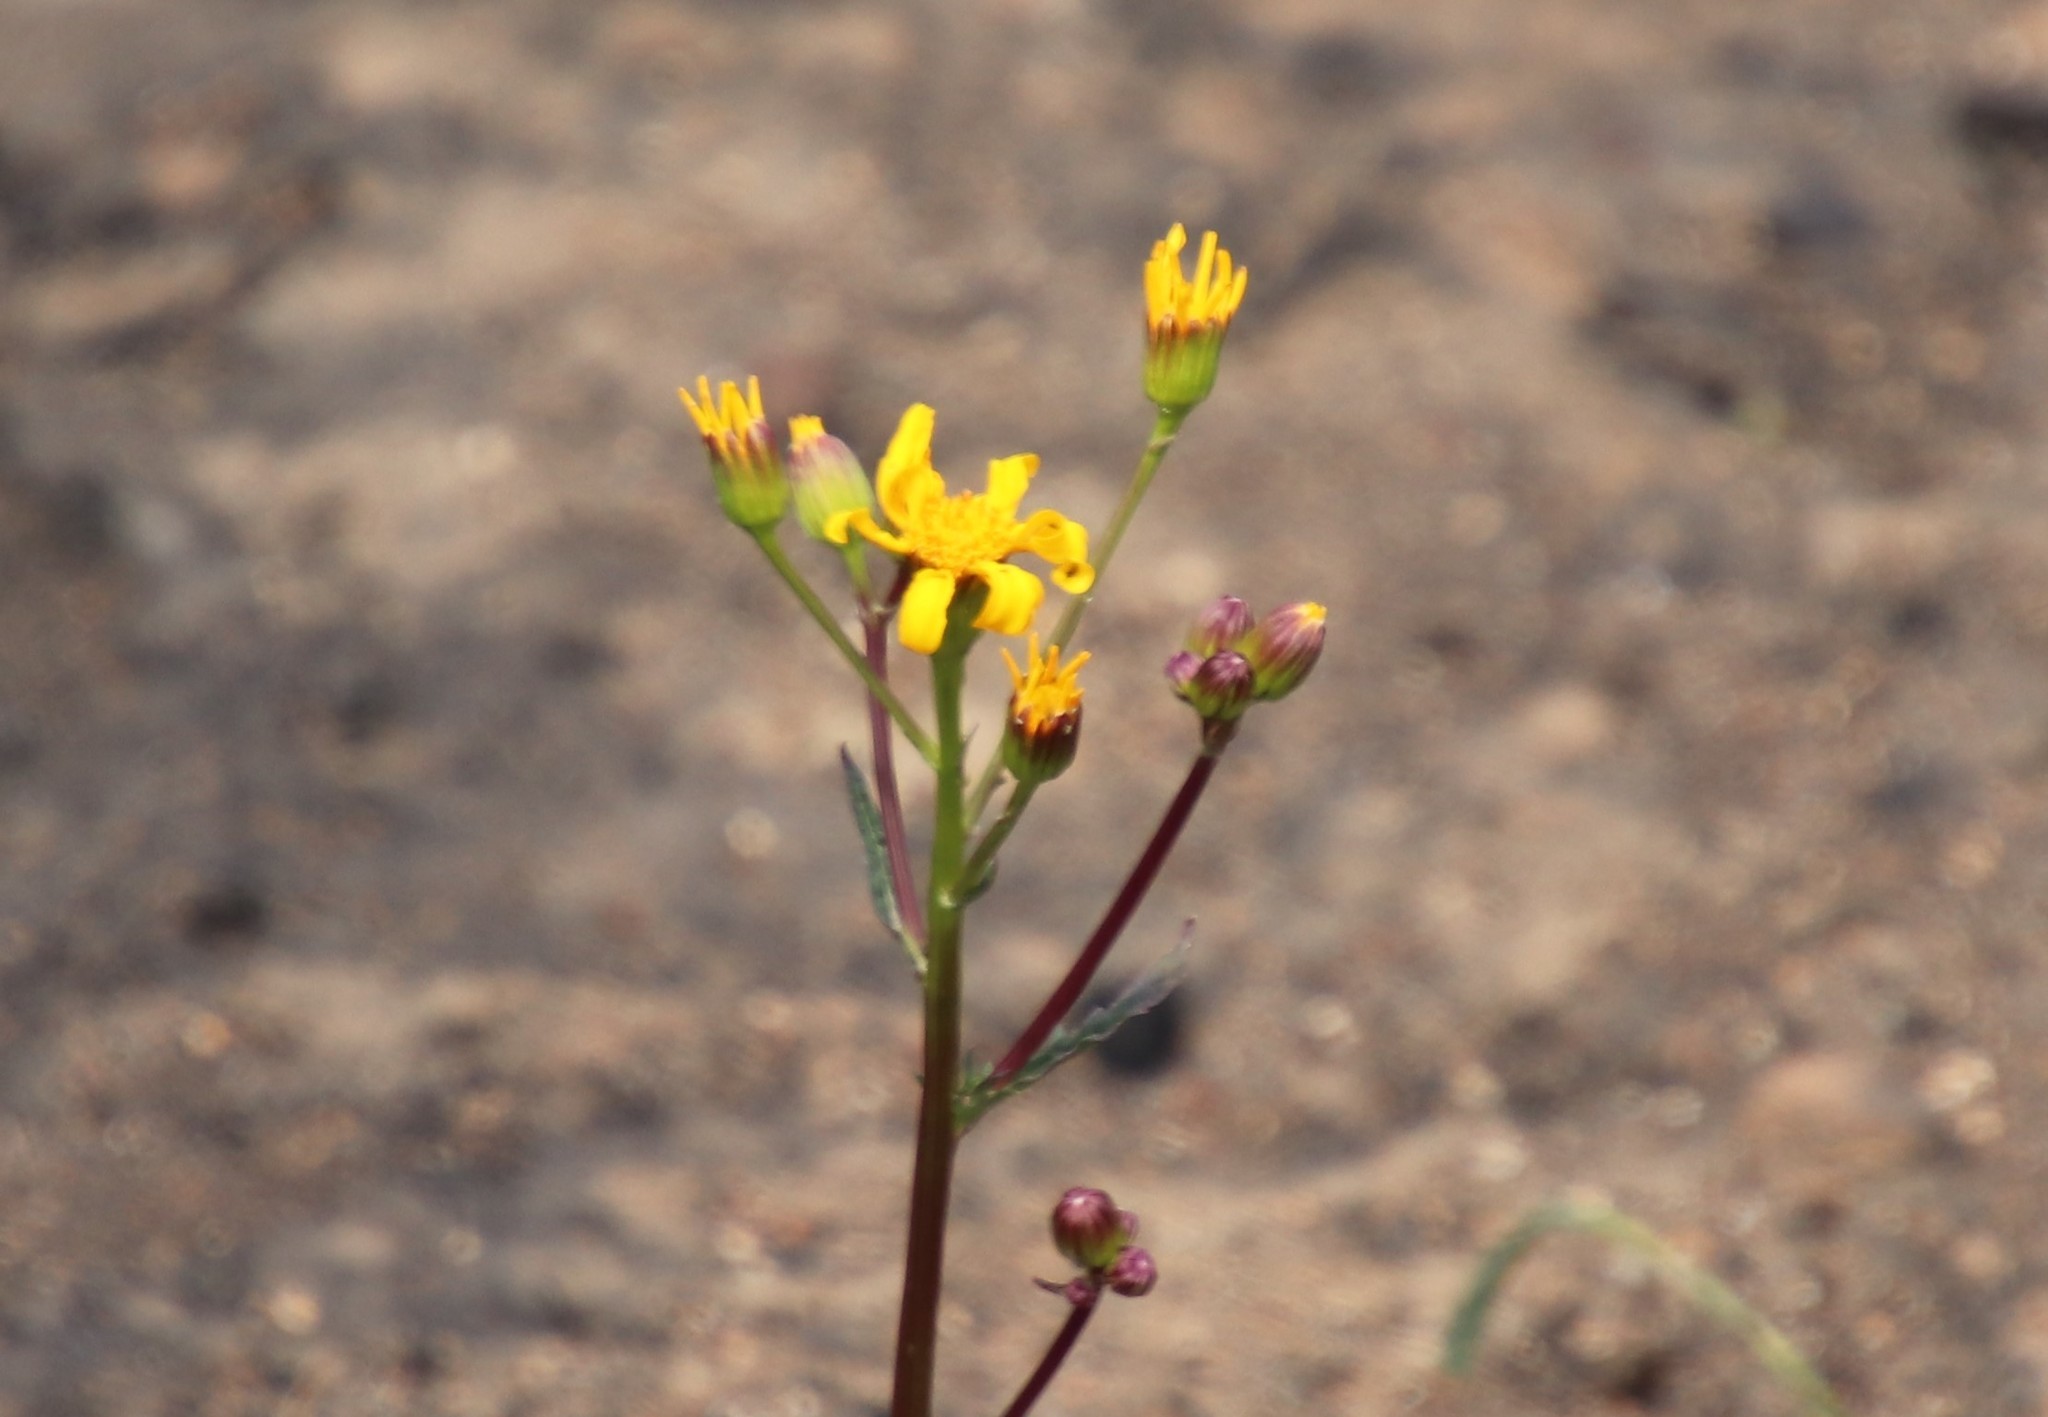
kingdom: Plantae
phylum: Tracheophyta
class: Magnoliopsida
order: Asterales
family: Asteraceae
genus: Packera
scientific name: Packera ganderi
